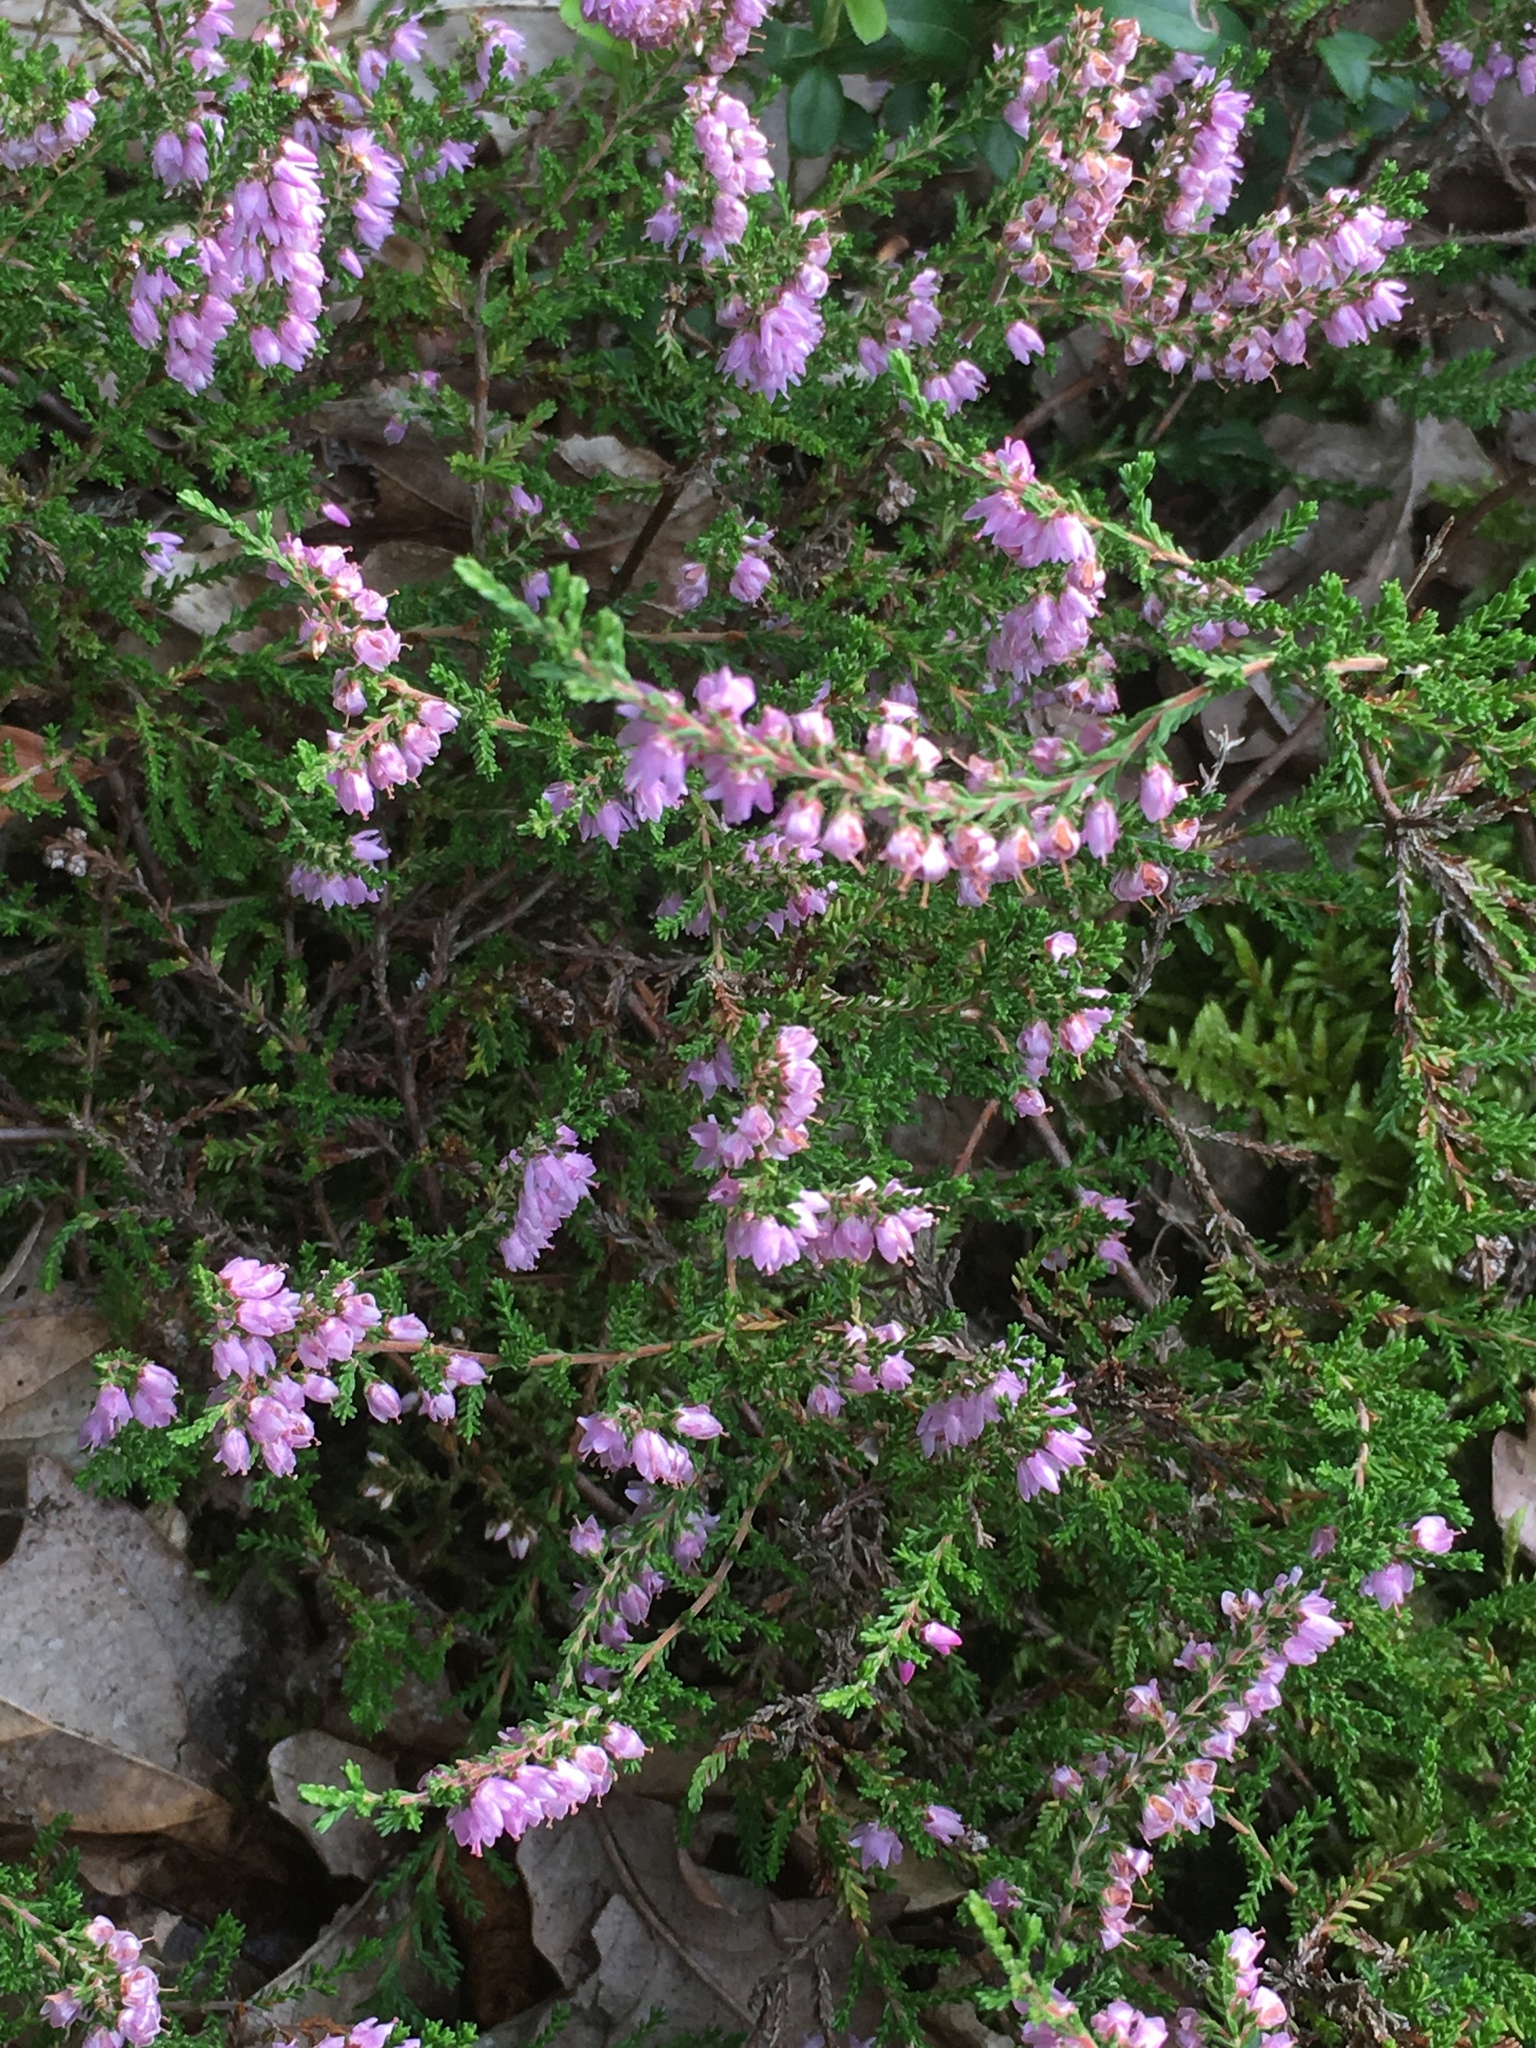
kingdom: Plantae
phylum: Tracheophyta
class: Magnoliopsida
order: Ericales
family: Ericaceae
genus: Calluna
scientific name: Calluna vulgaris
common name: Heather
